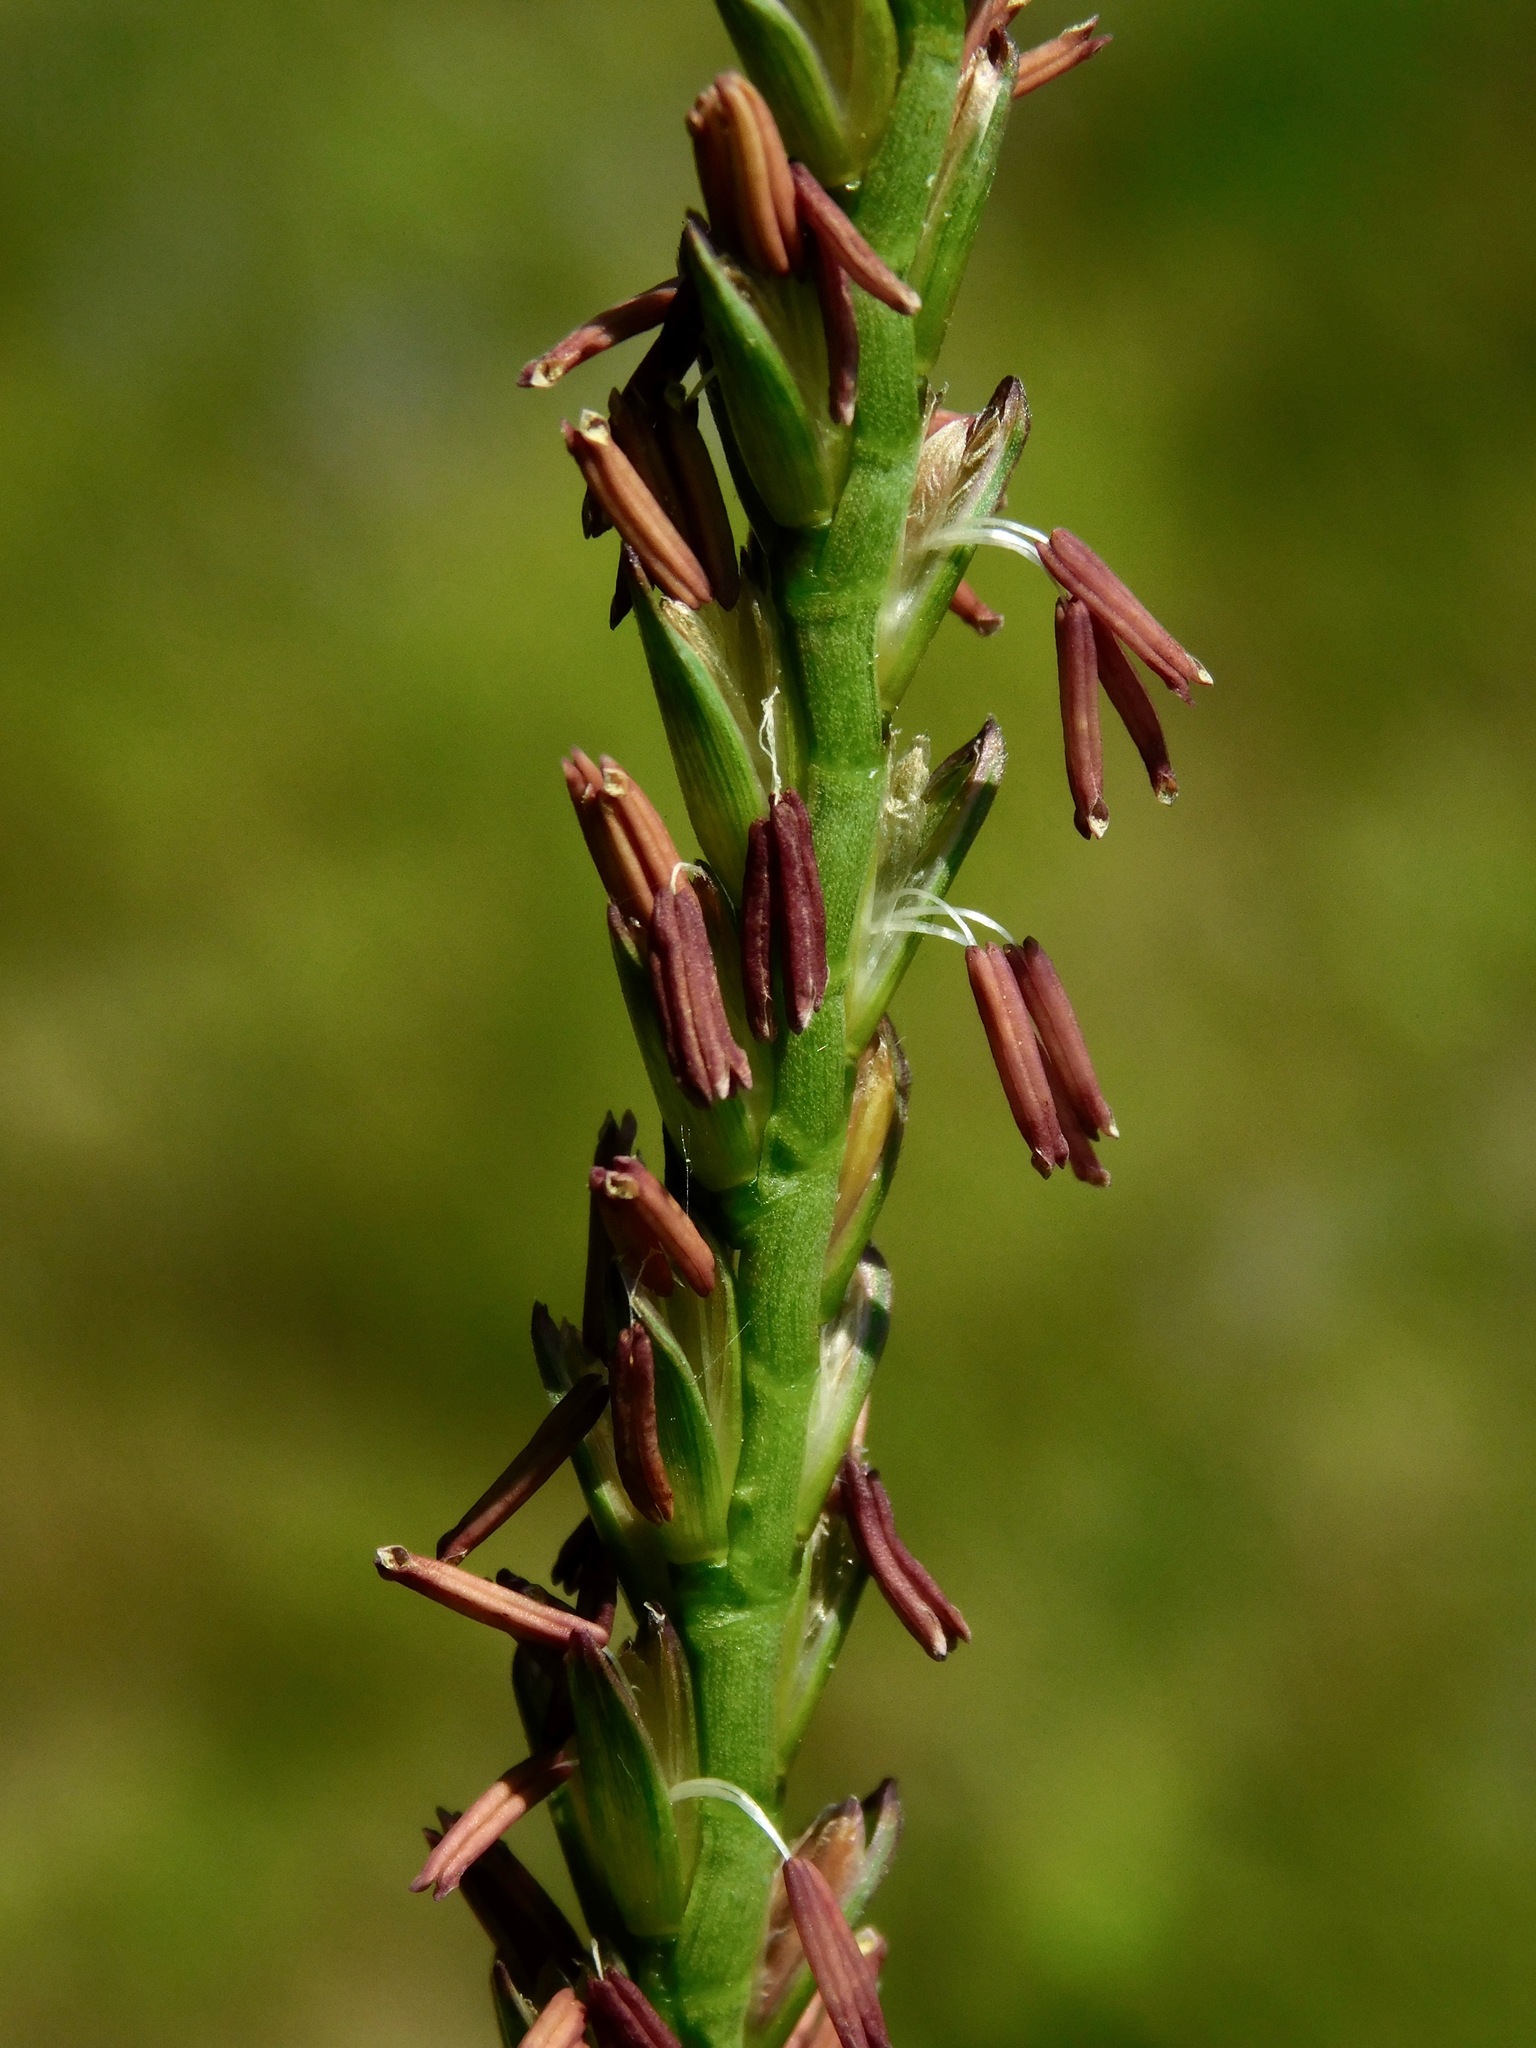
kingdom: Plantae
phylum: Tracheophyta
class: Liliopsida
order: Poales
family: Poaceae
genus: Tripsacum
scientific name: Tripsacum dactyloides
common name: Buffalo-grass
